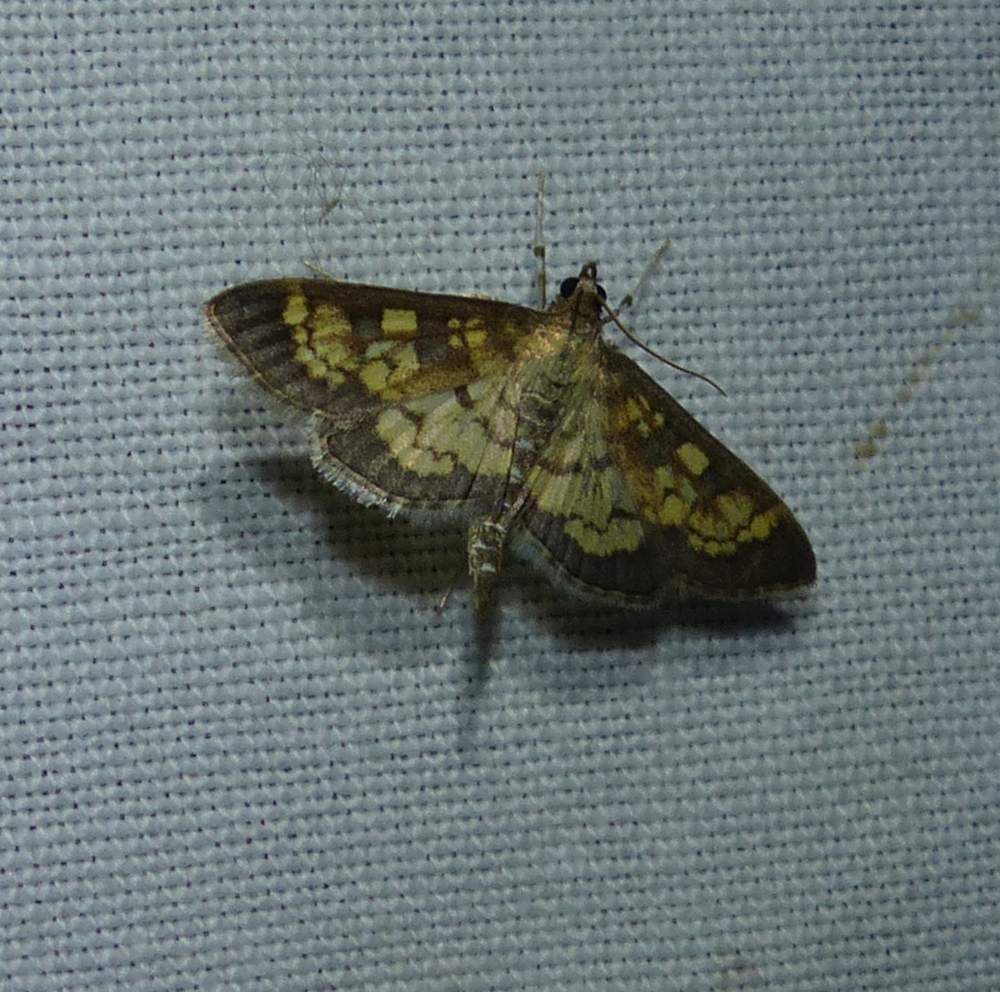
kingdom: Animalia
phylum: Arthropoda
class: Insecta
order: Lepidoptera
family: Crambidae
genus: Epipagis
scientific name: Epipagis adipaloides
